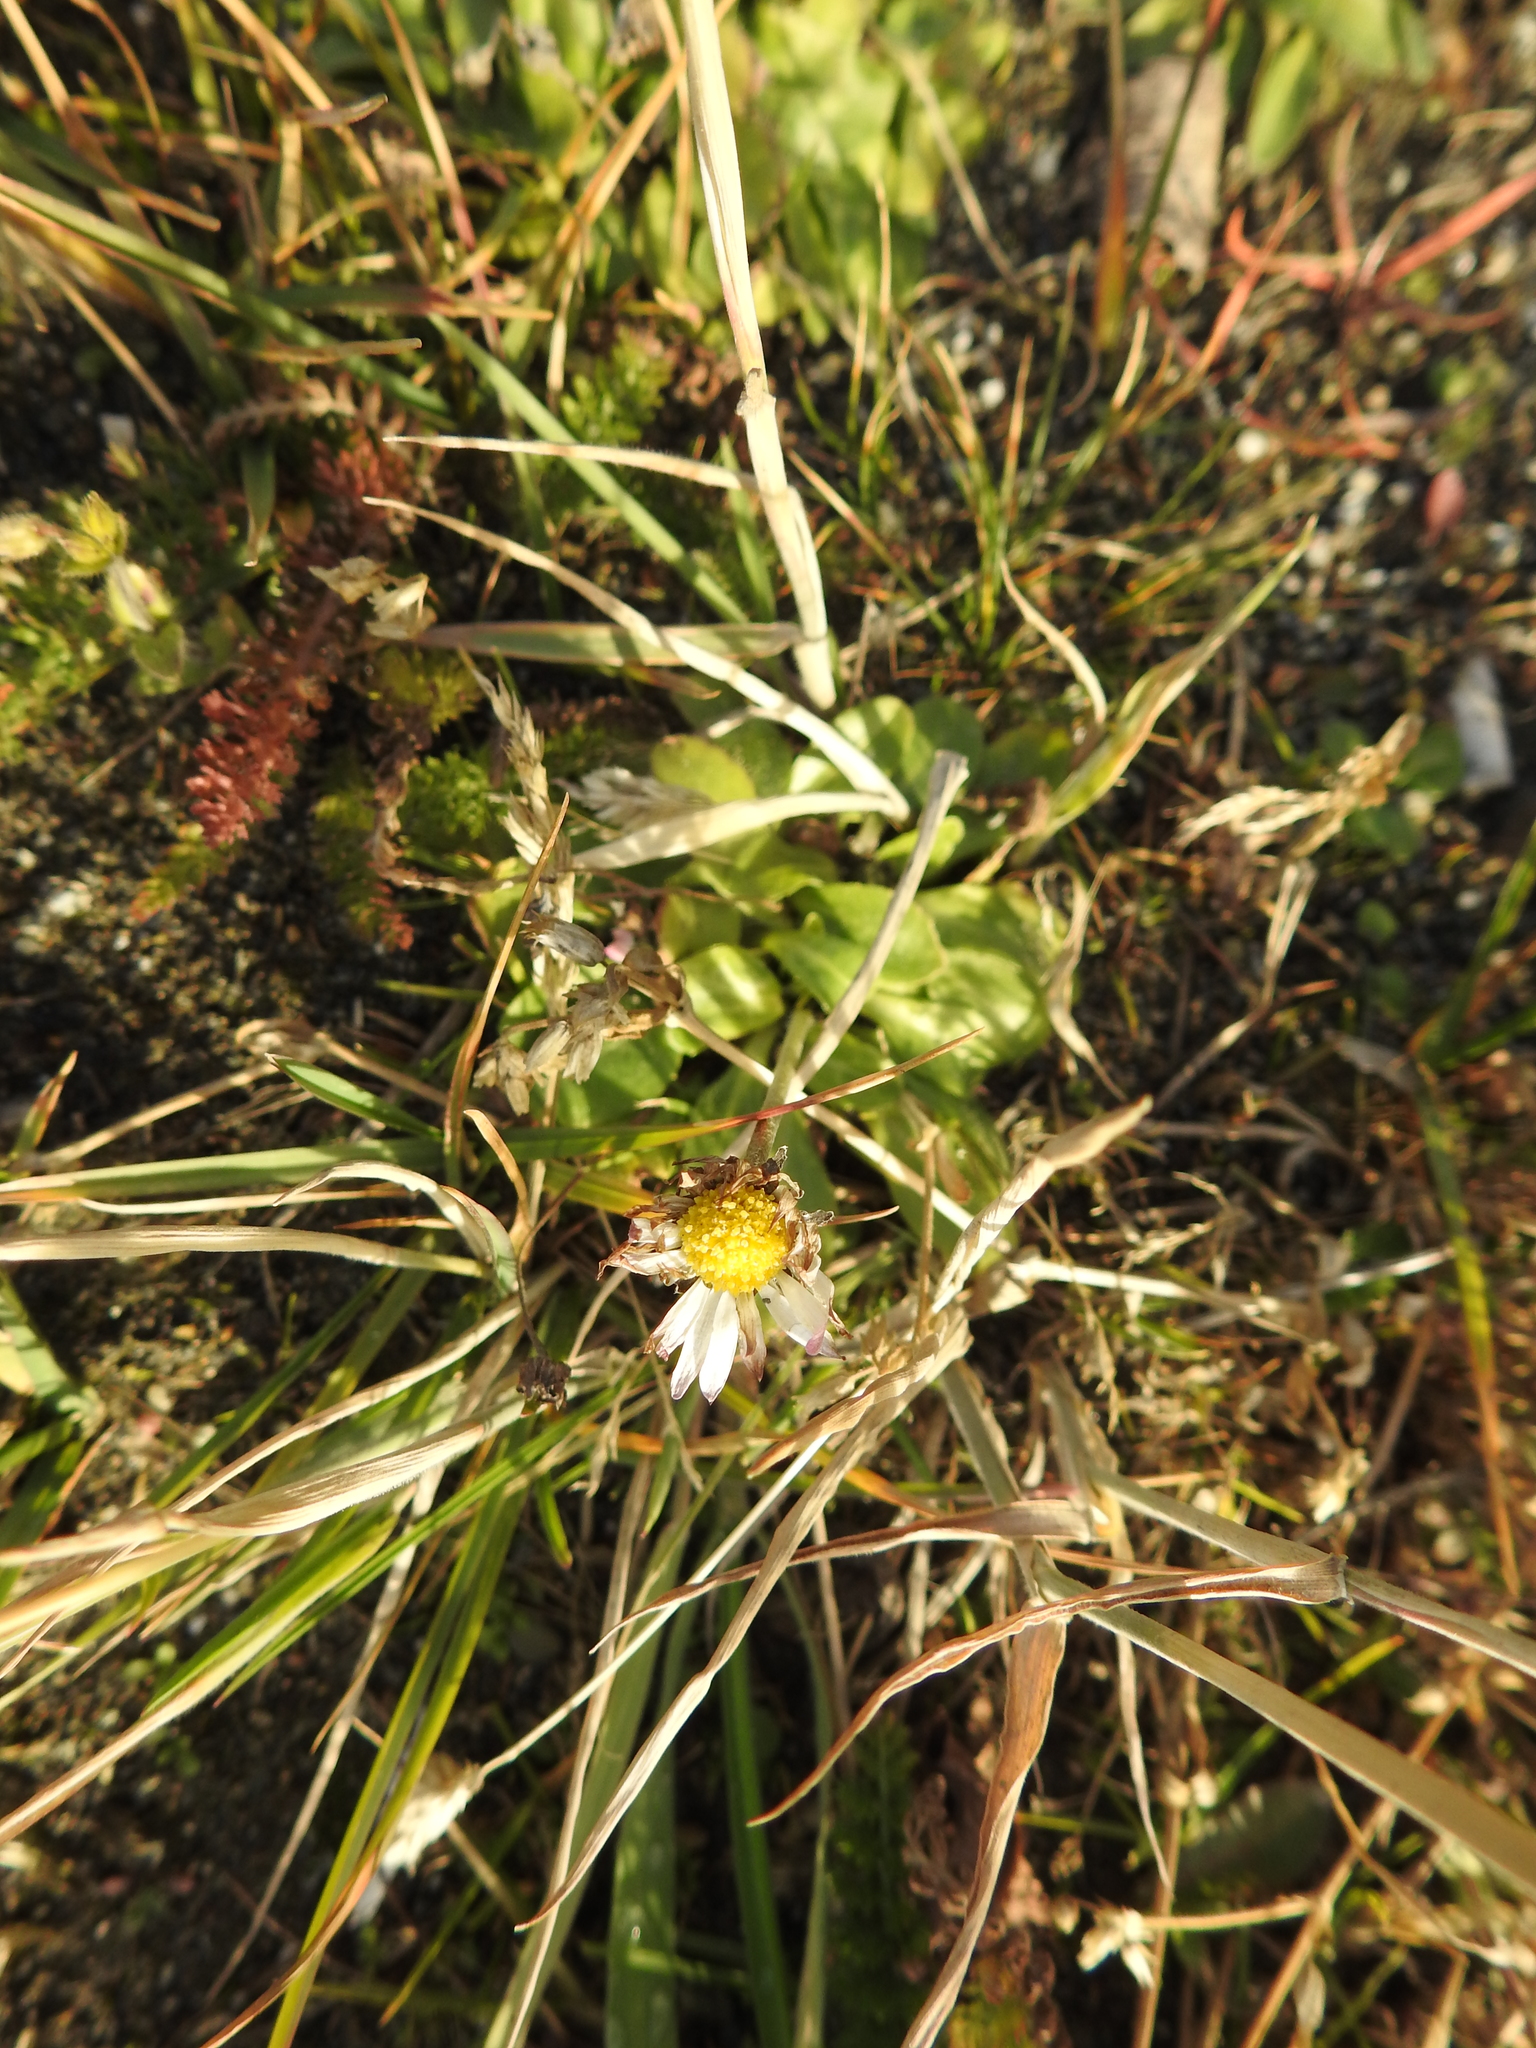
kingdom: Plantae
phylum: Tracheophyta
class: Magnoliopsida
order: Asterales
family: Asteraceae
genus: Bellis
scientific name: Bellis perennis
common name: Lawndaisy
